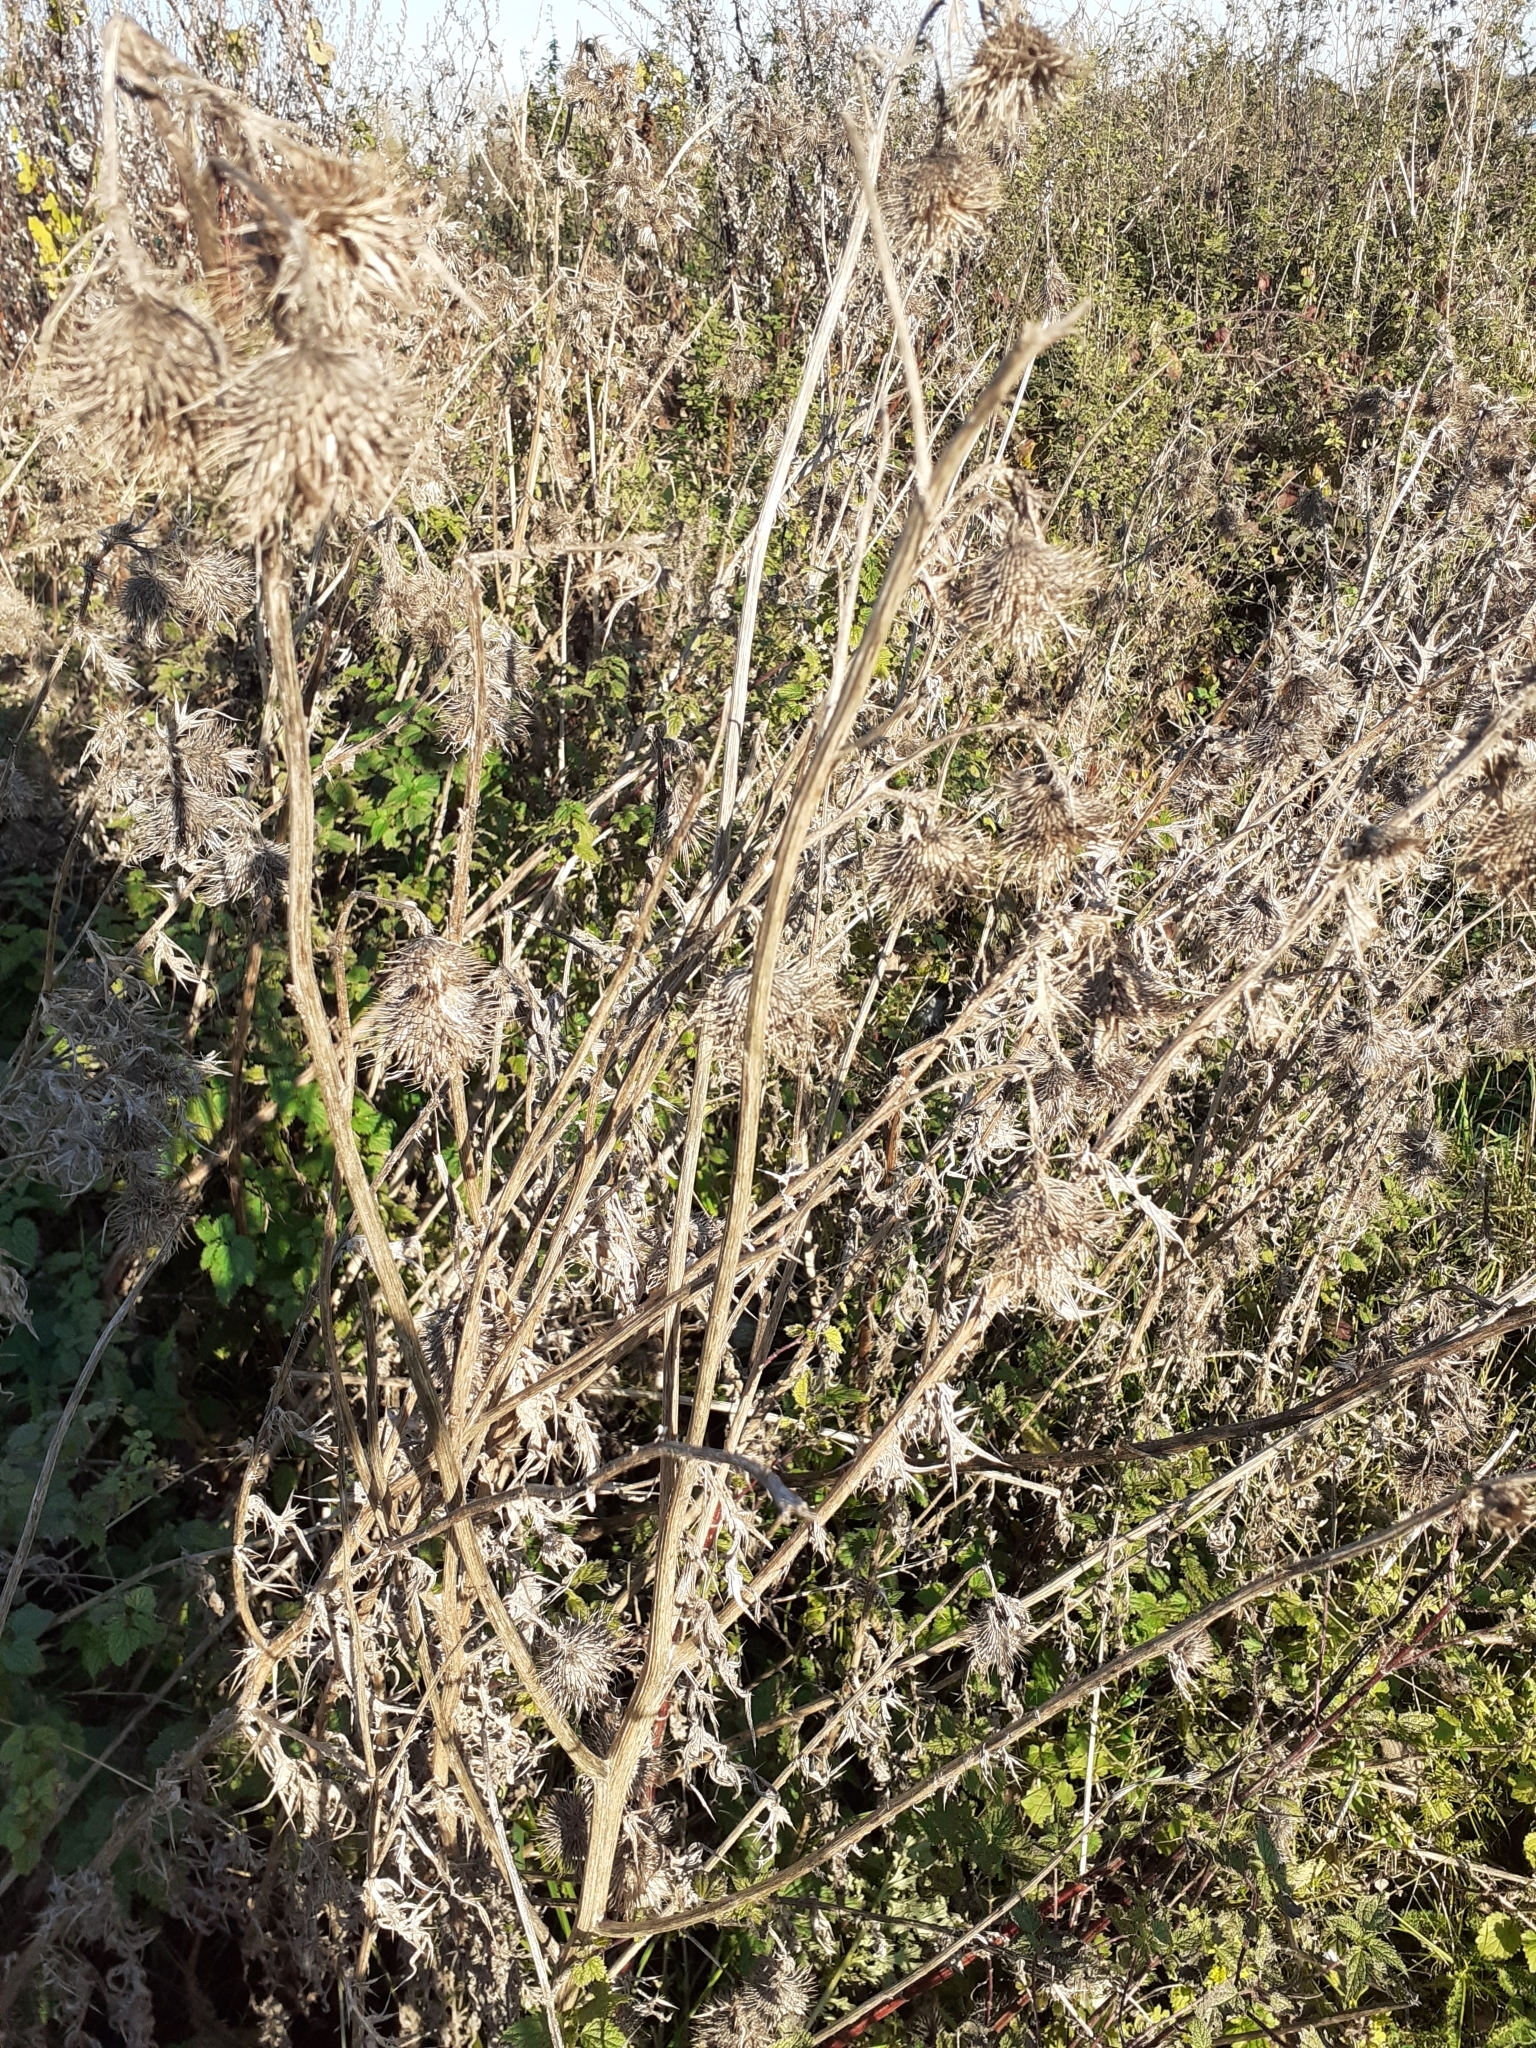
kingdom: Plantae
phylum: Tracheophyta
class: Magnoliopsida
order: Asterales
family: Asteraceae
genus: Cirsium
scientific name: Cirsium arvense
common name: Creeping thistle
